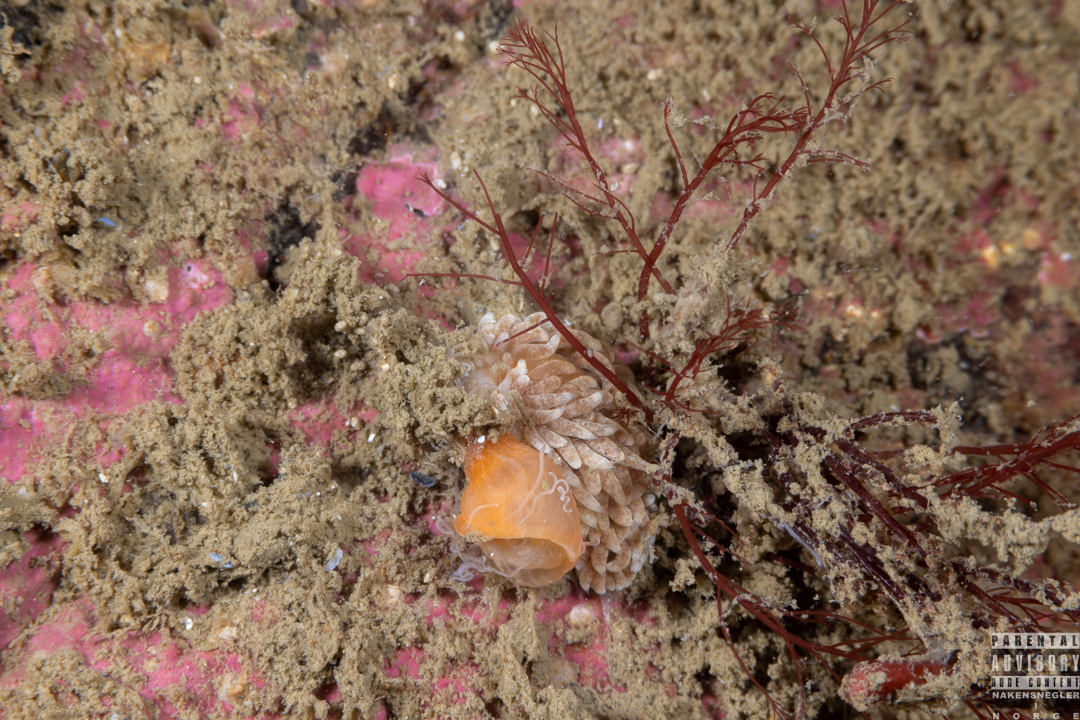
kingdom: Animalia
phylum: Mollusca
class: Gastropoda
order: Nudibranchia
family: Aeolidiidae
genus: Aeolidiella
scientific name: Aeolidiella glauca
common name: Orange-brown aeolid
